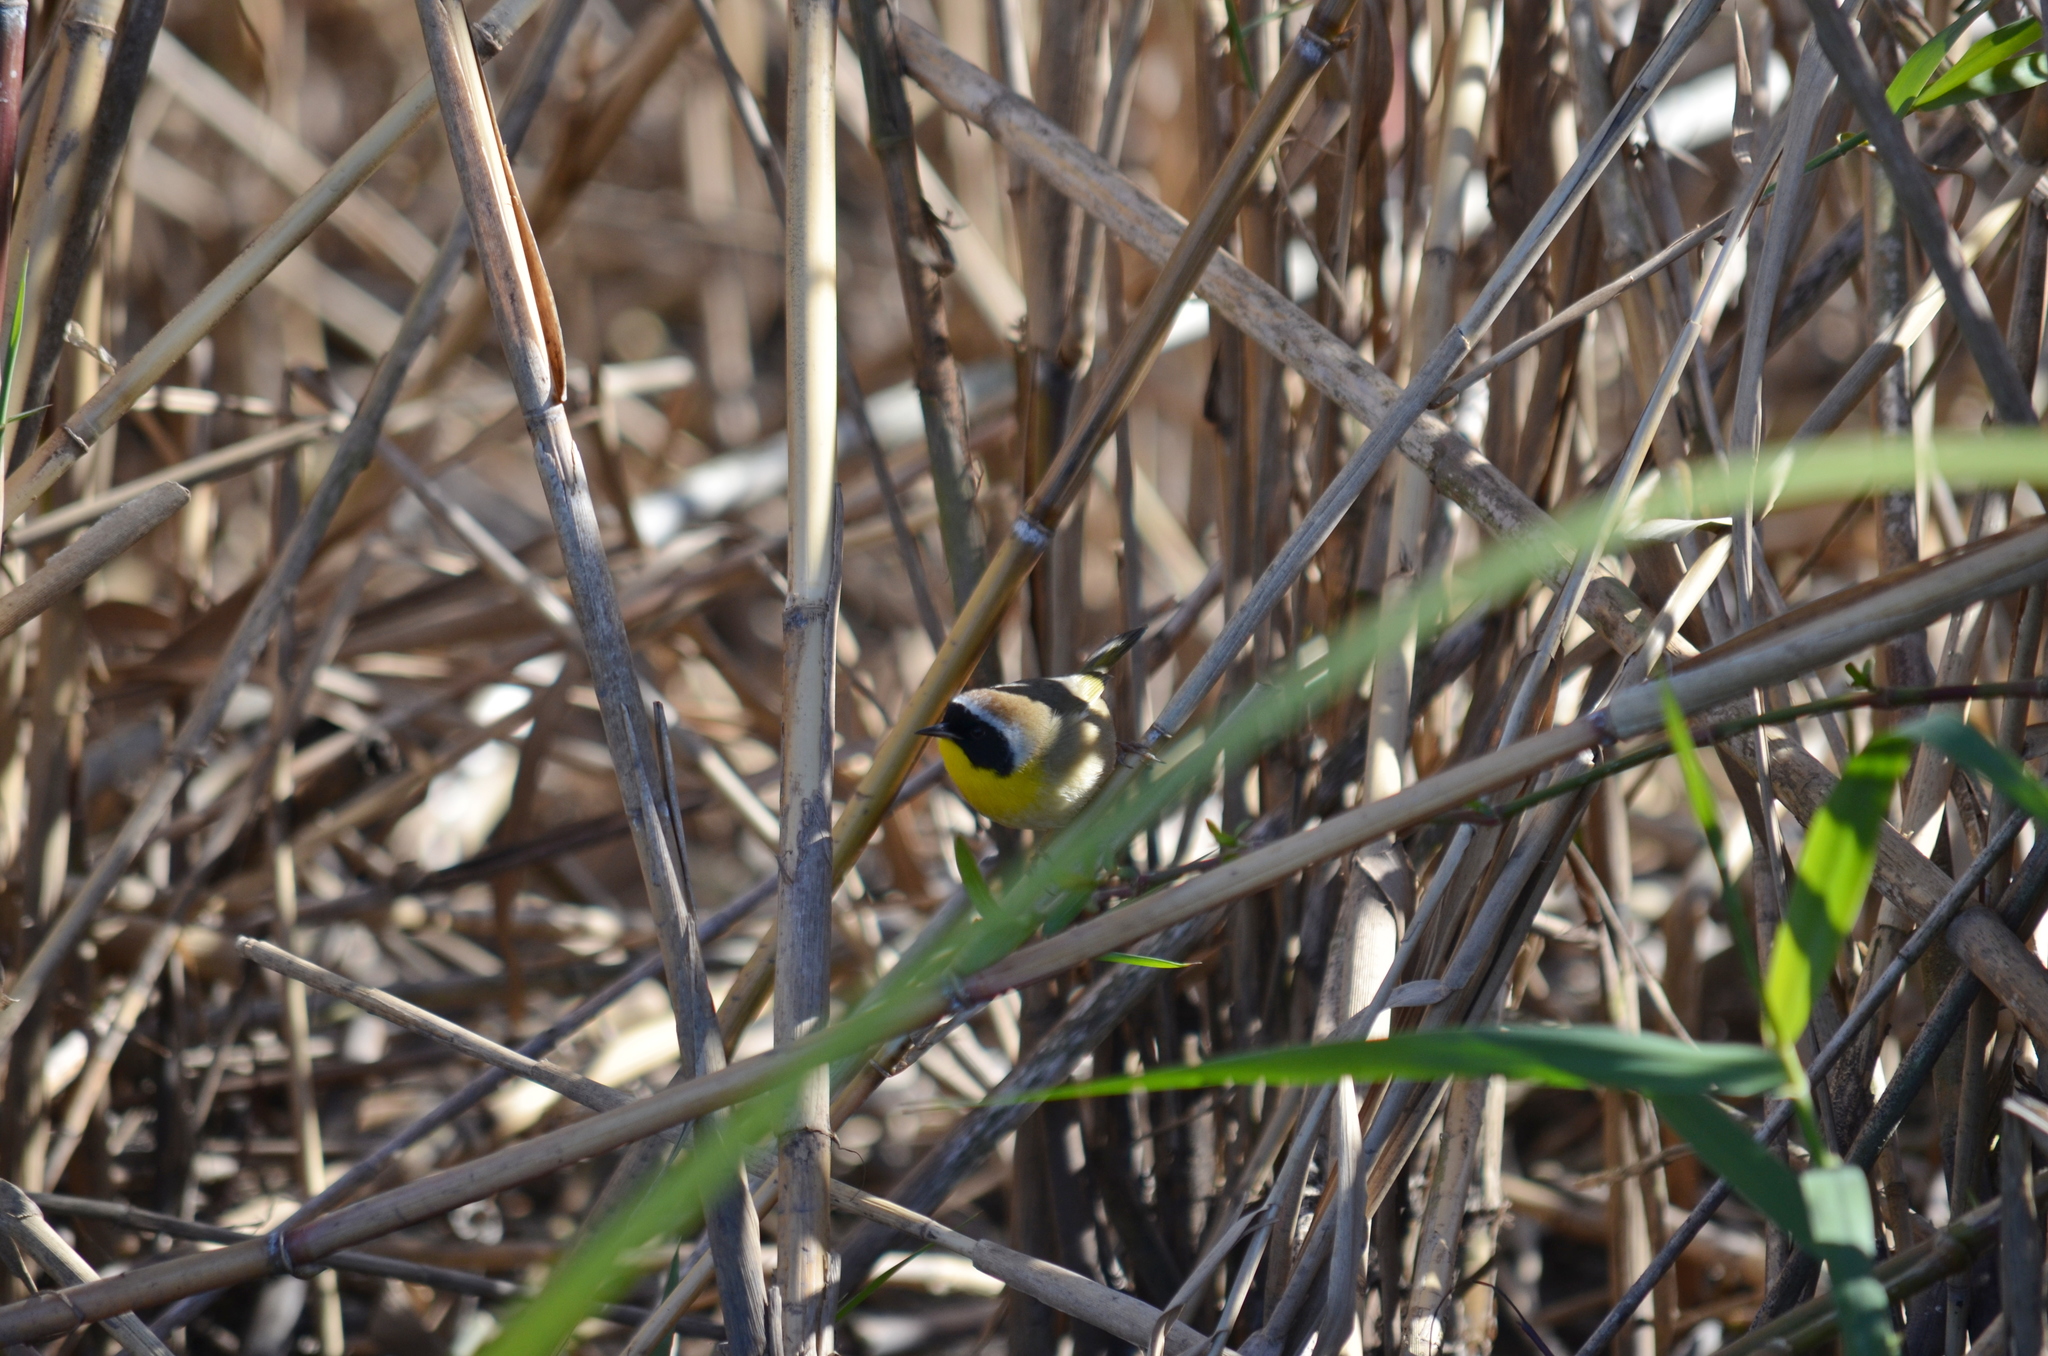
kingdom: Animalia
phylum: Chordata
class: Aves
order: Passeriformes
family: Parulidae
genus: Geothlypis
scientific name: Geothlypis trichas
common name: Common yellowthroat
